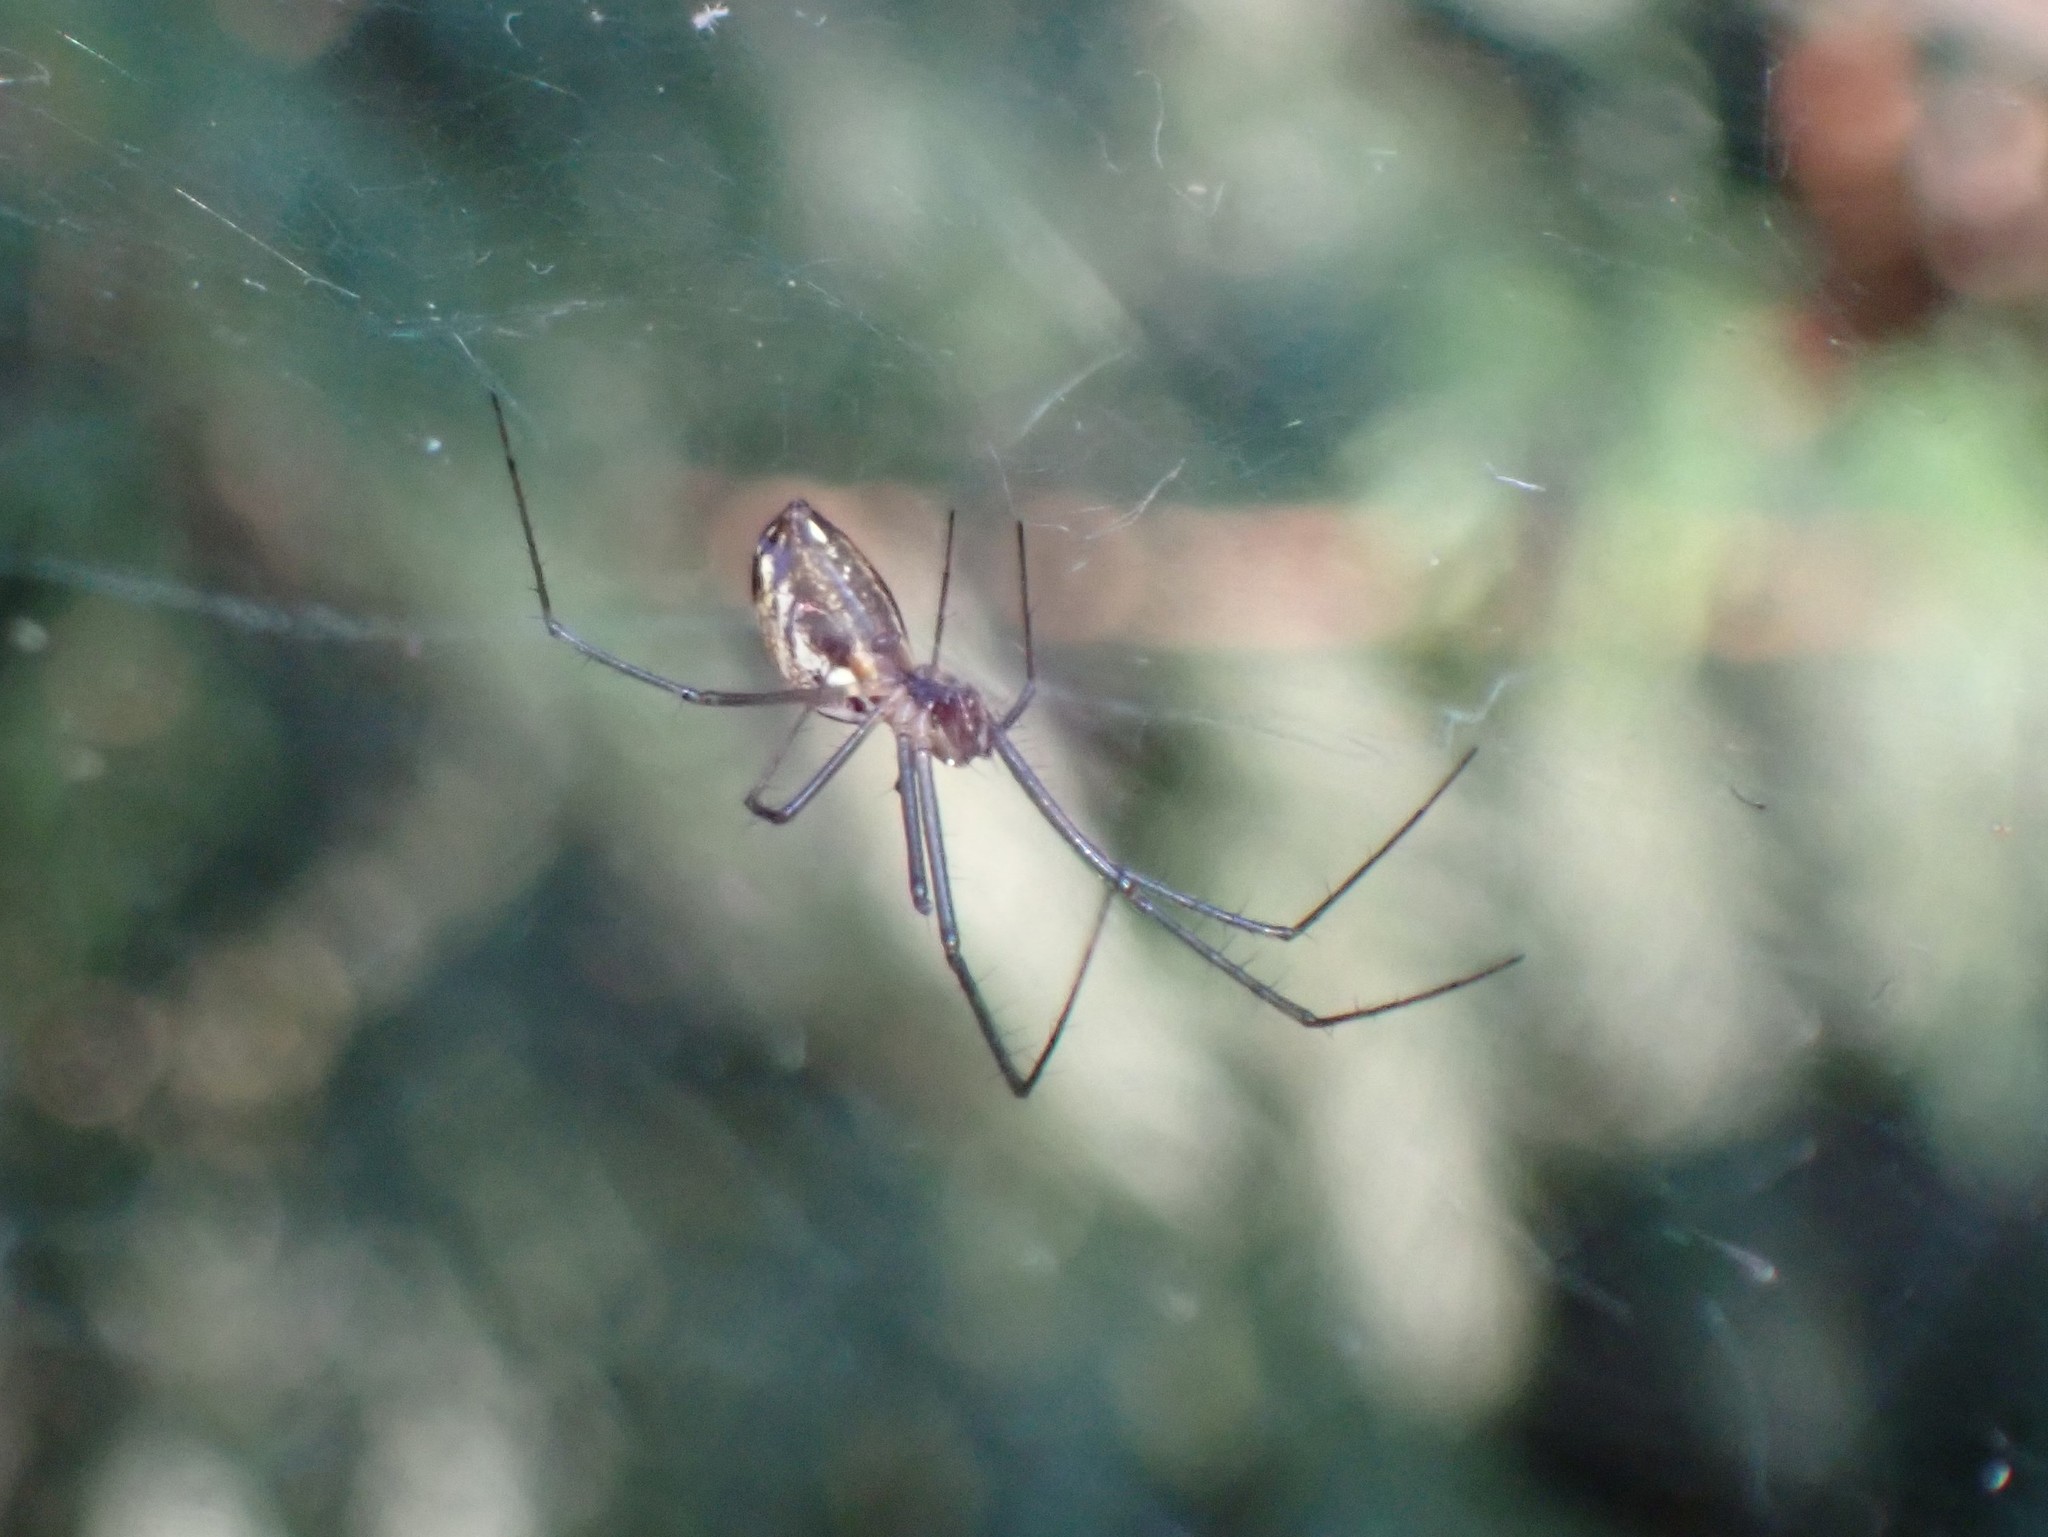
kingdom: Animalia
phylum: Arthropoda
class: Arachnida
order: Araneae
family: Linyphiidae
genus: Neriene
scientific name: Neriene litigiosa
